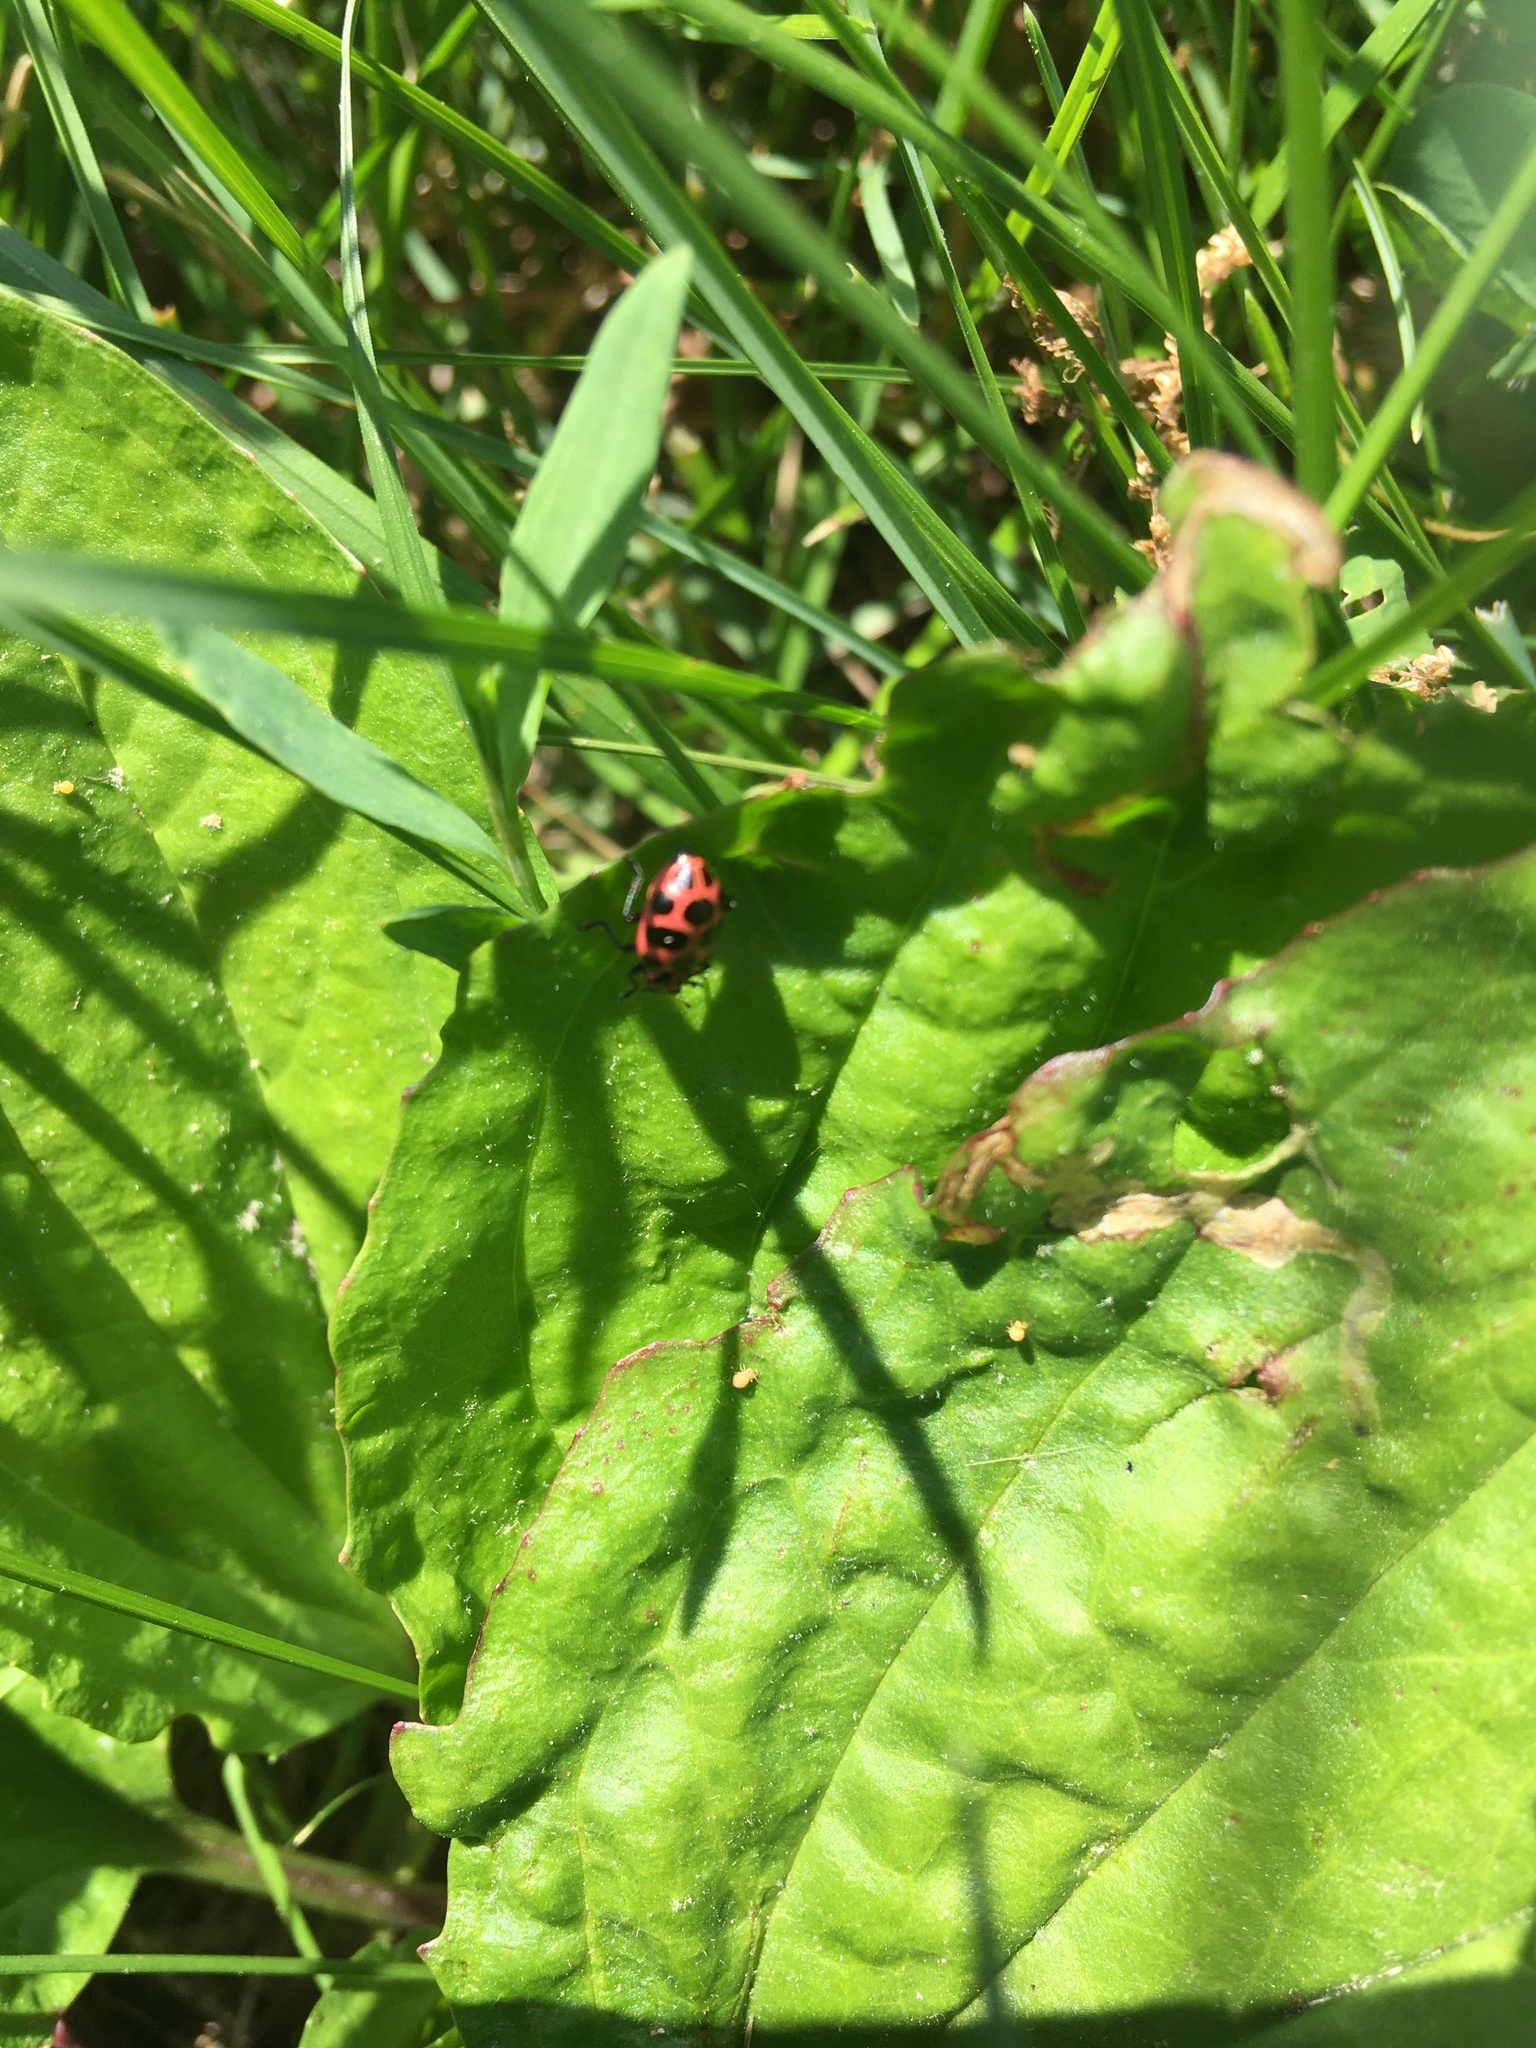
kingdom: Animalia
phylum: Arthropoda
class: Insecta
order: Coleoptera
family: Coccinellidae
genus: Coleomegilla
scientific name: Coleomegilla maculata
